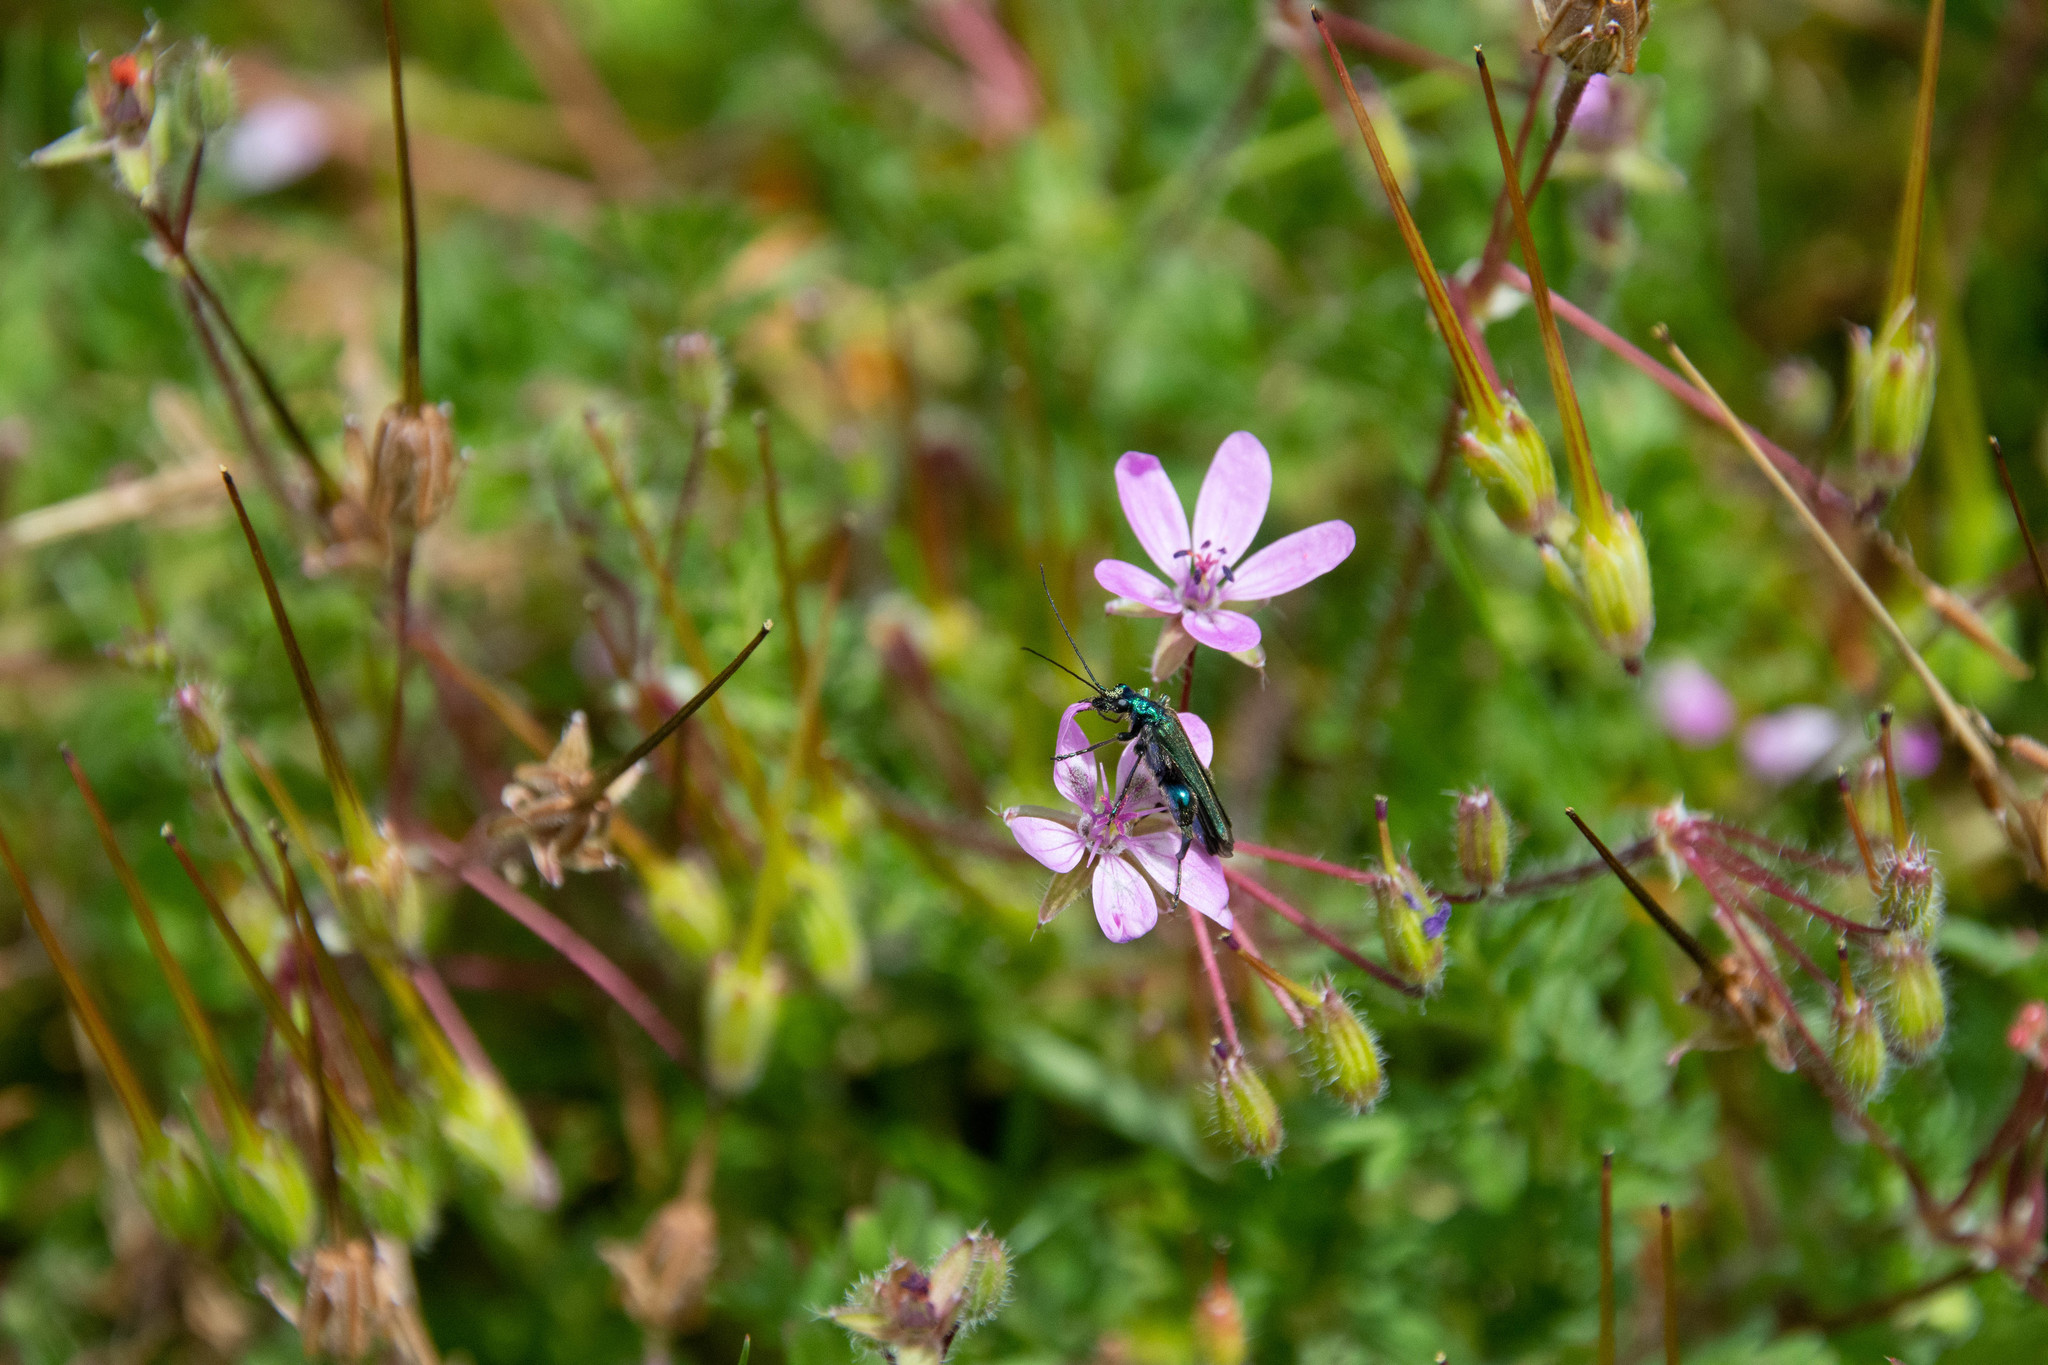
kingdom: Animalia
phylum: Arthropoda
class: Insecta
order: Coleoptera
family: Oedemeridae
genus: Oedemera
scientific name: Oedemera nobilis
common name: Swollen-thighed beetle
